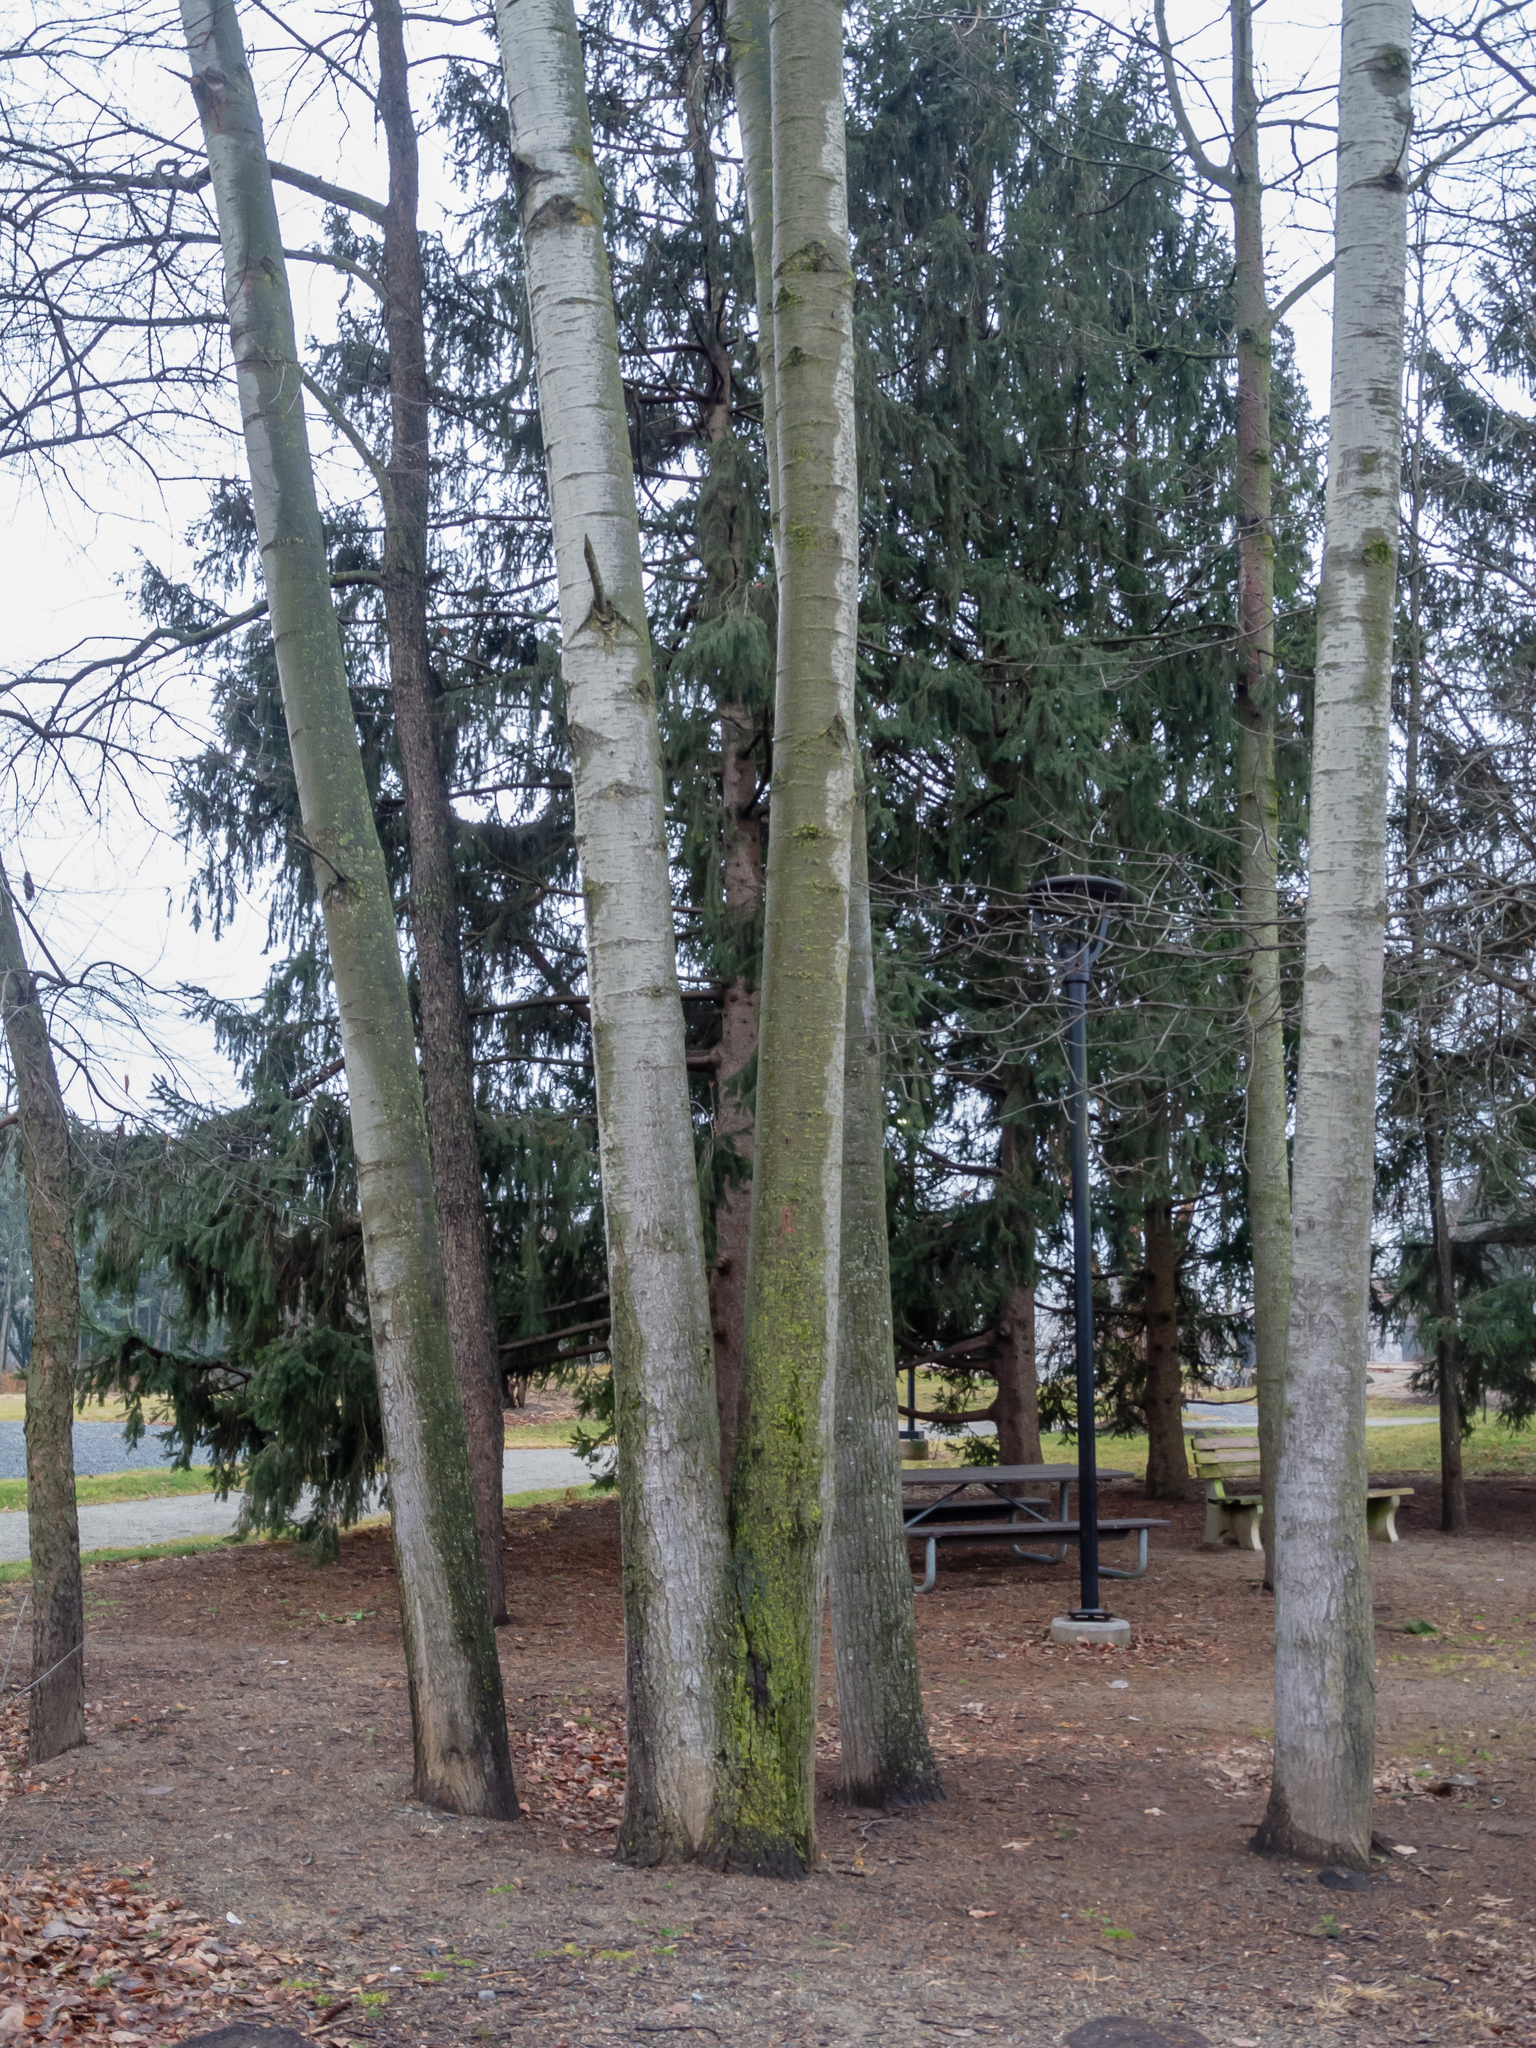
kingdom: Plantae
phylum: Tracheophyta
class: Magnoliopsida
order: Malpighiales
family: Salicaceae
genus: Populus
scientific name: Populus grandidentata
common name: Bigtooth aspen
